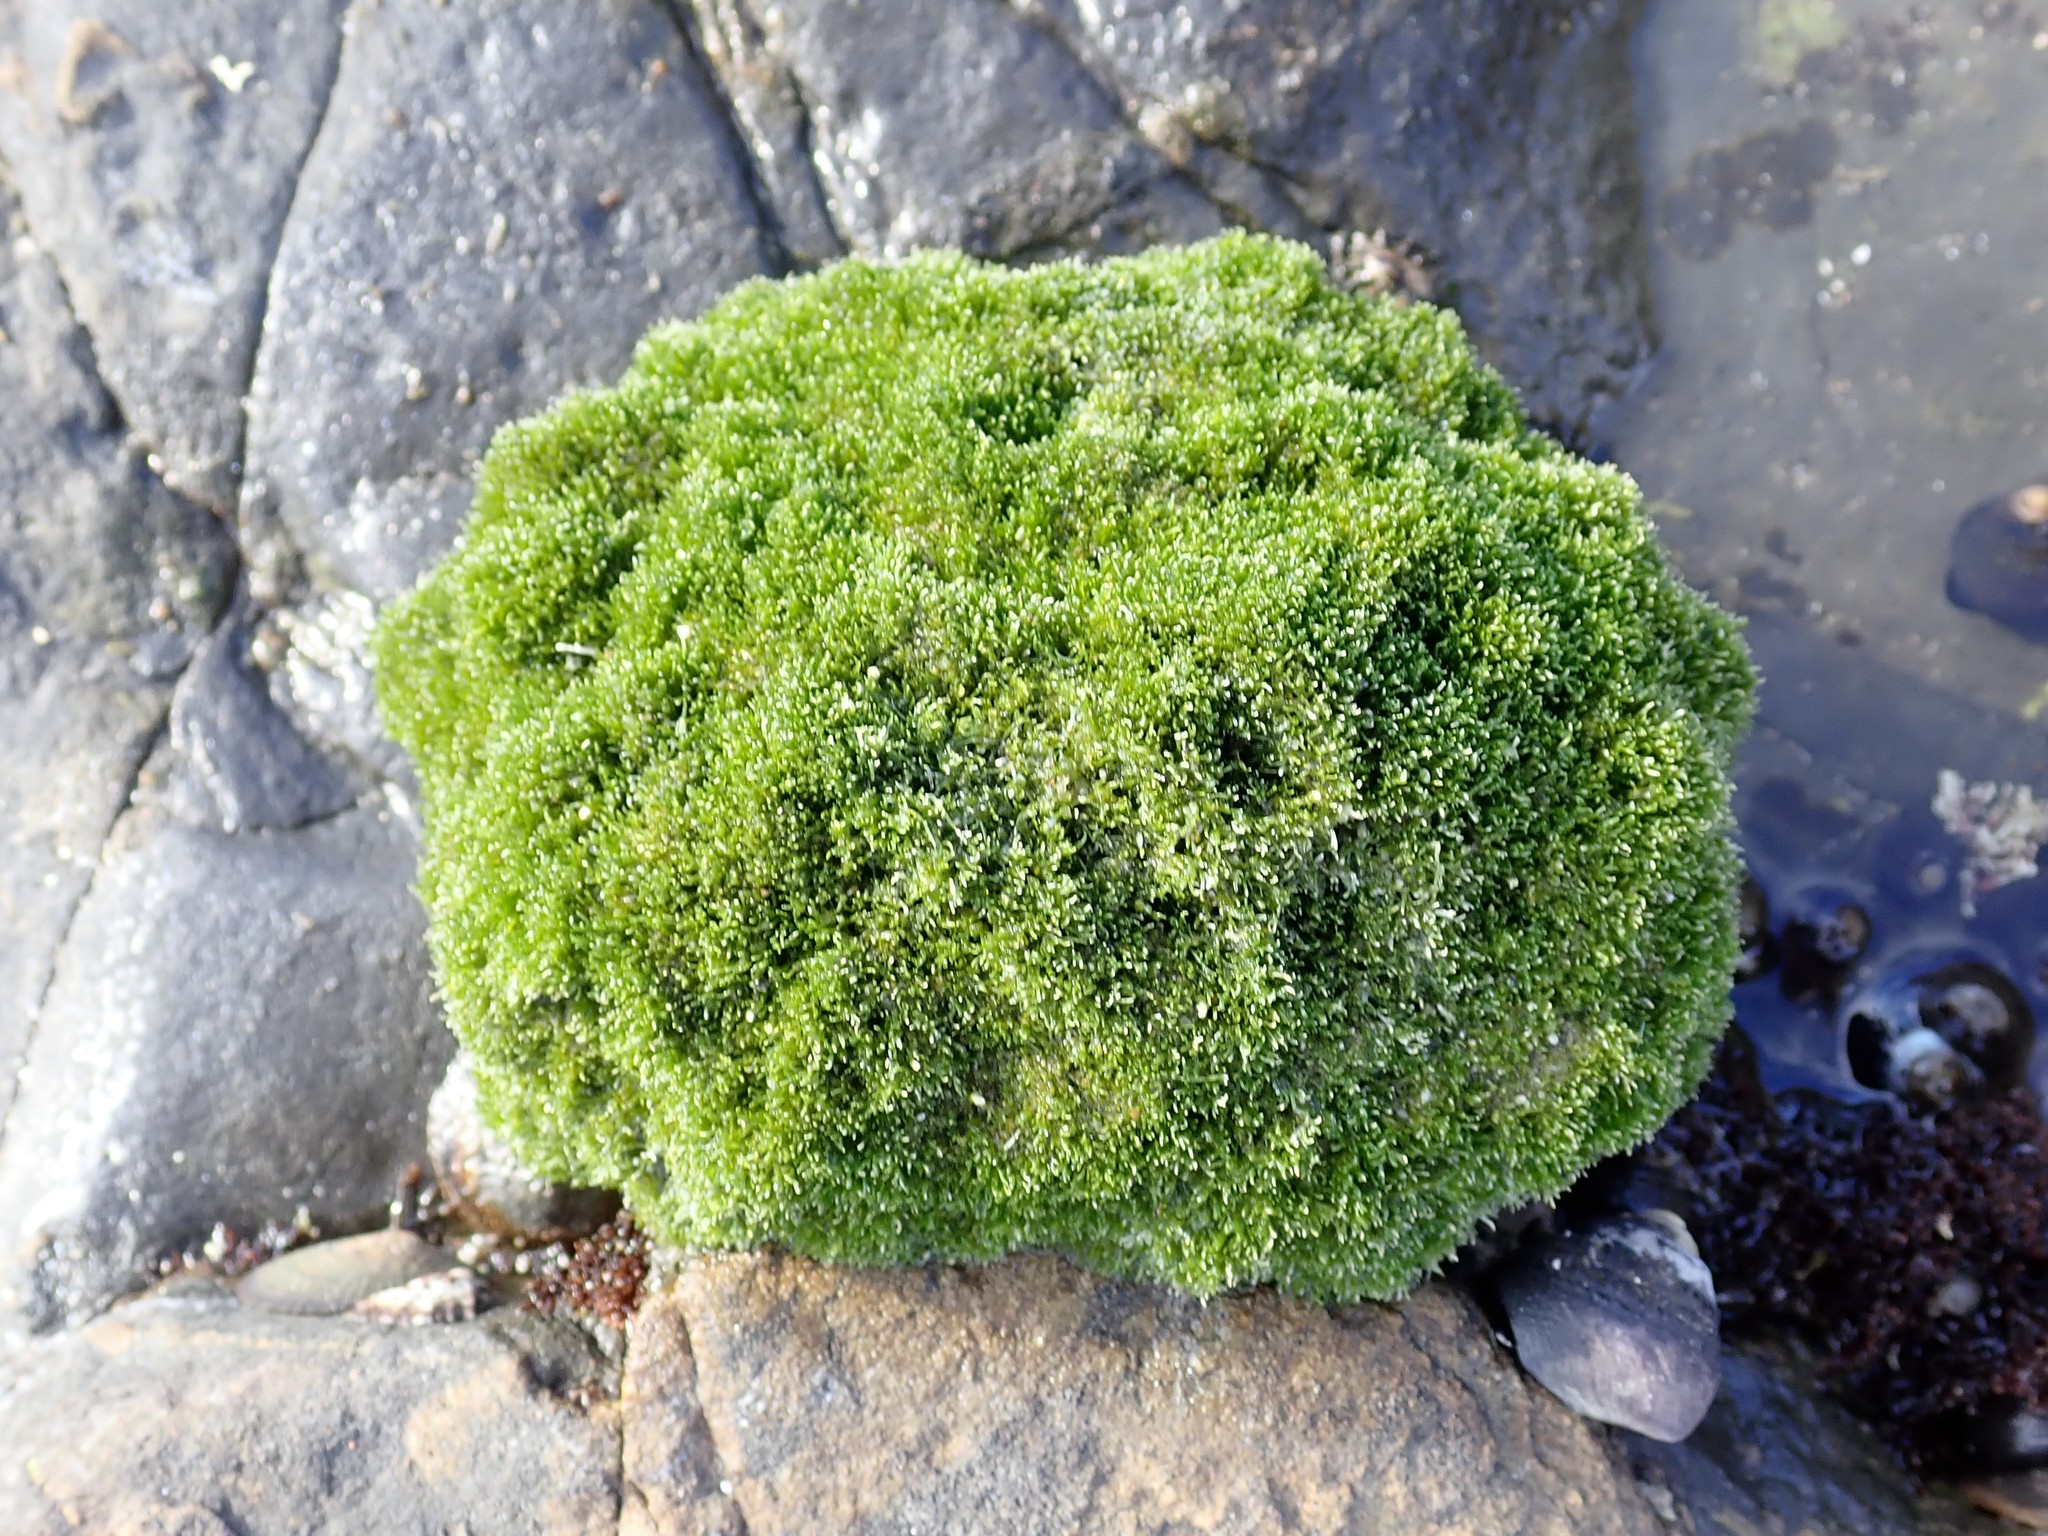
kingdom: Plantae
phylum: Chlorophyta
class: Ulvophyceae
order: Cladophorales
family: Cladophoraceae
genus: Cladophora
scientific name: Cladophora columbiana
